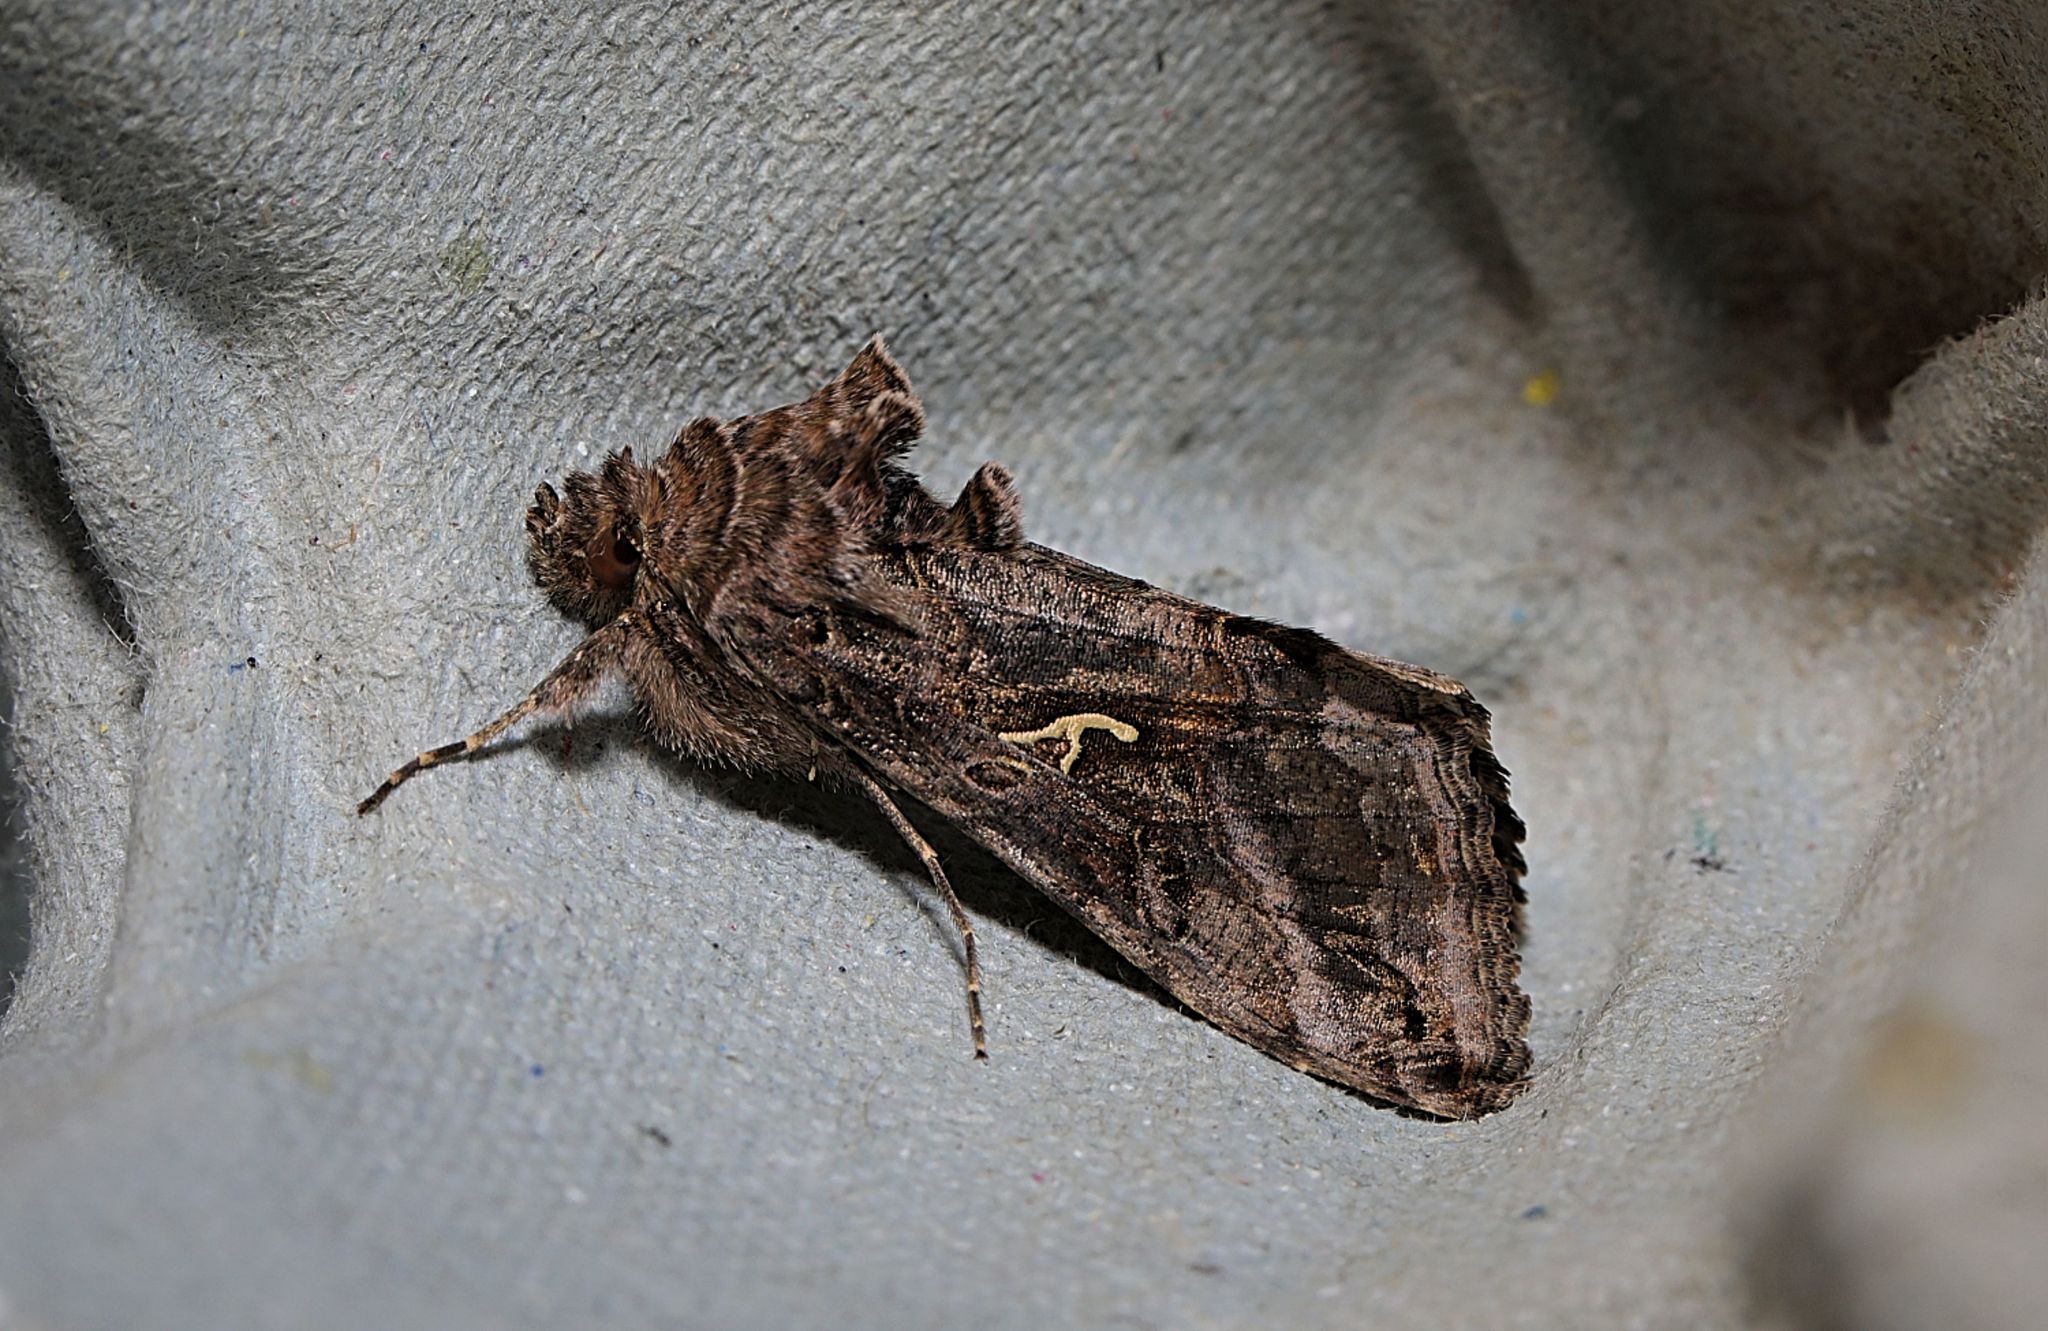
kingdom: Animalia
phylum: Arthropoda
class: Insecta
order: Lepidoptera
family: Noctuidae
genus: Autographa
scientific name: Autographa gamma
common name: Silver y
